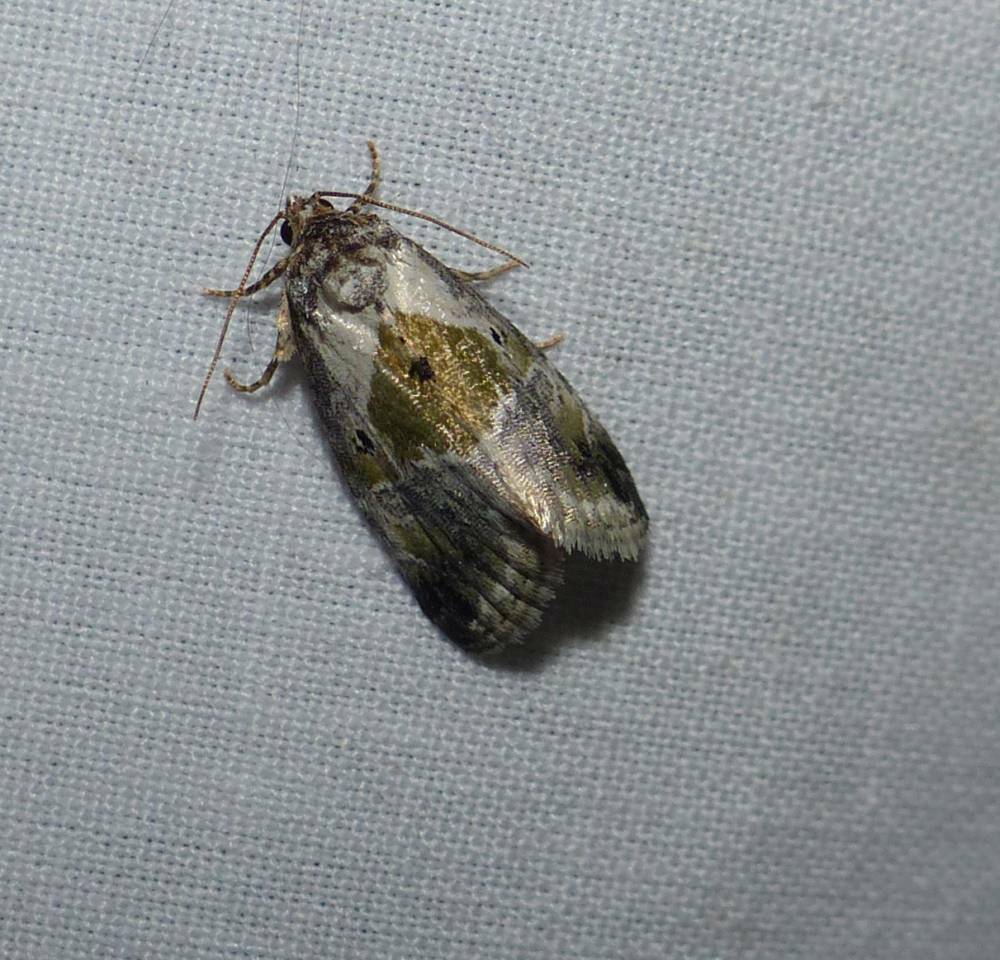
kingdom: Animalia
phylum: Arthropoda
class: Insecta
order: Lepidoptera
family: Noctuidae
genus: Maliattha
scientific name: Maliattha synochitis
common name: Black-dotted glyph
